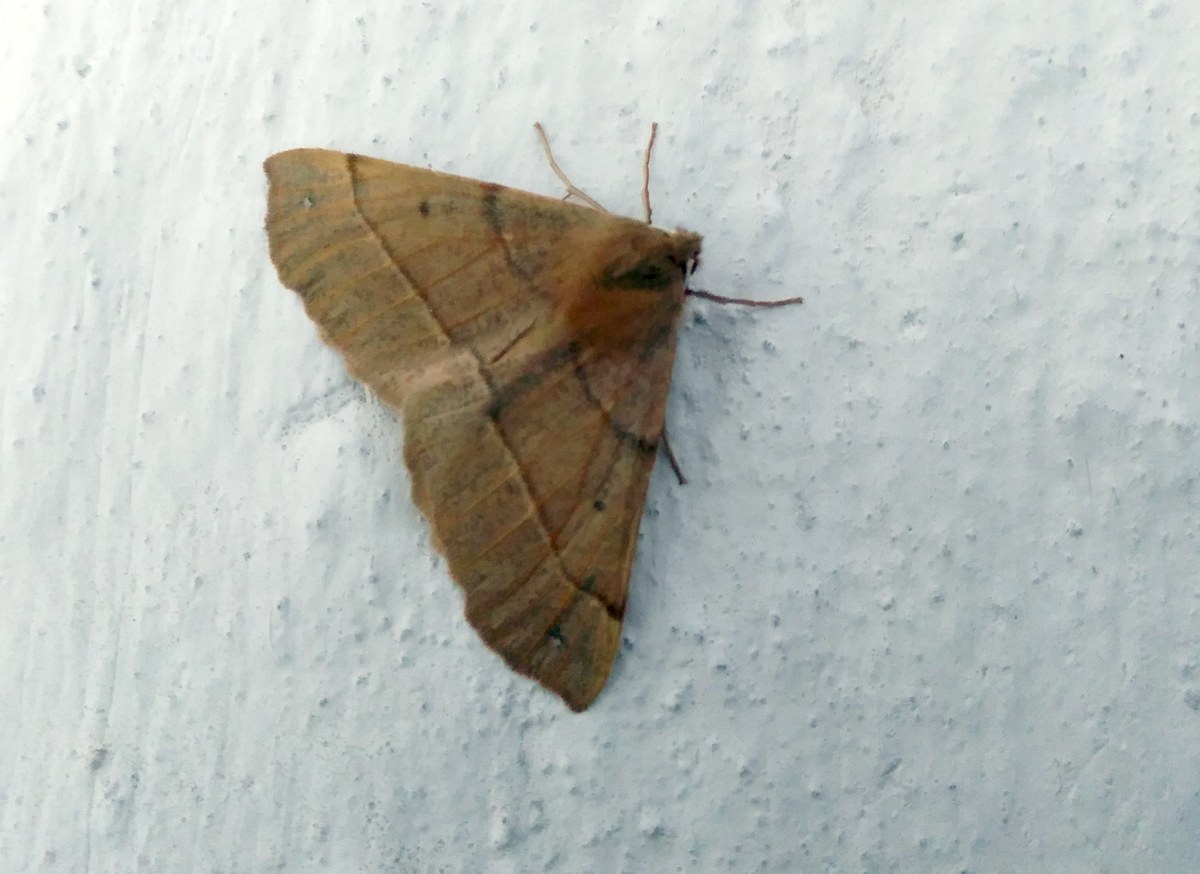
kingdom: Animalia
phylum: Arthropoda
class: Insecta
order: Lepidoptera
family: Geometridae
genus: Colotois
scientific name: Colotois pennaria
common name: Feathered thorn
